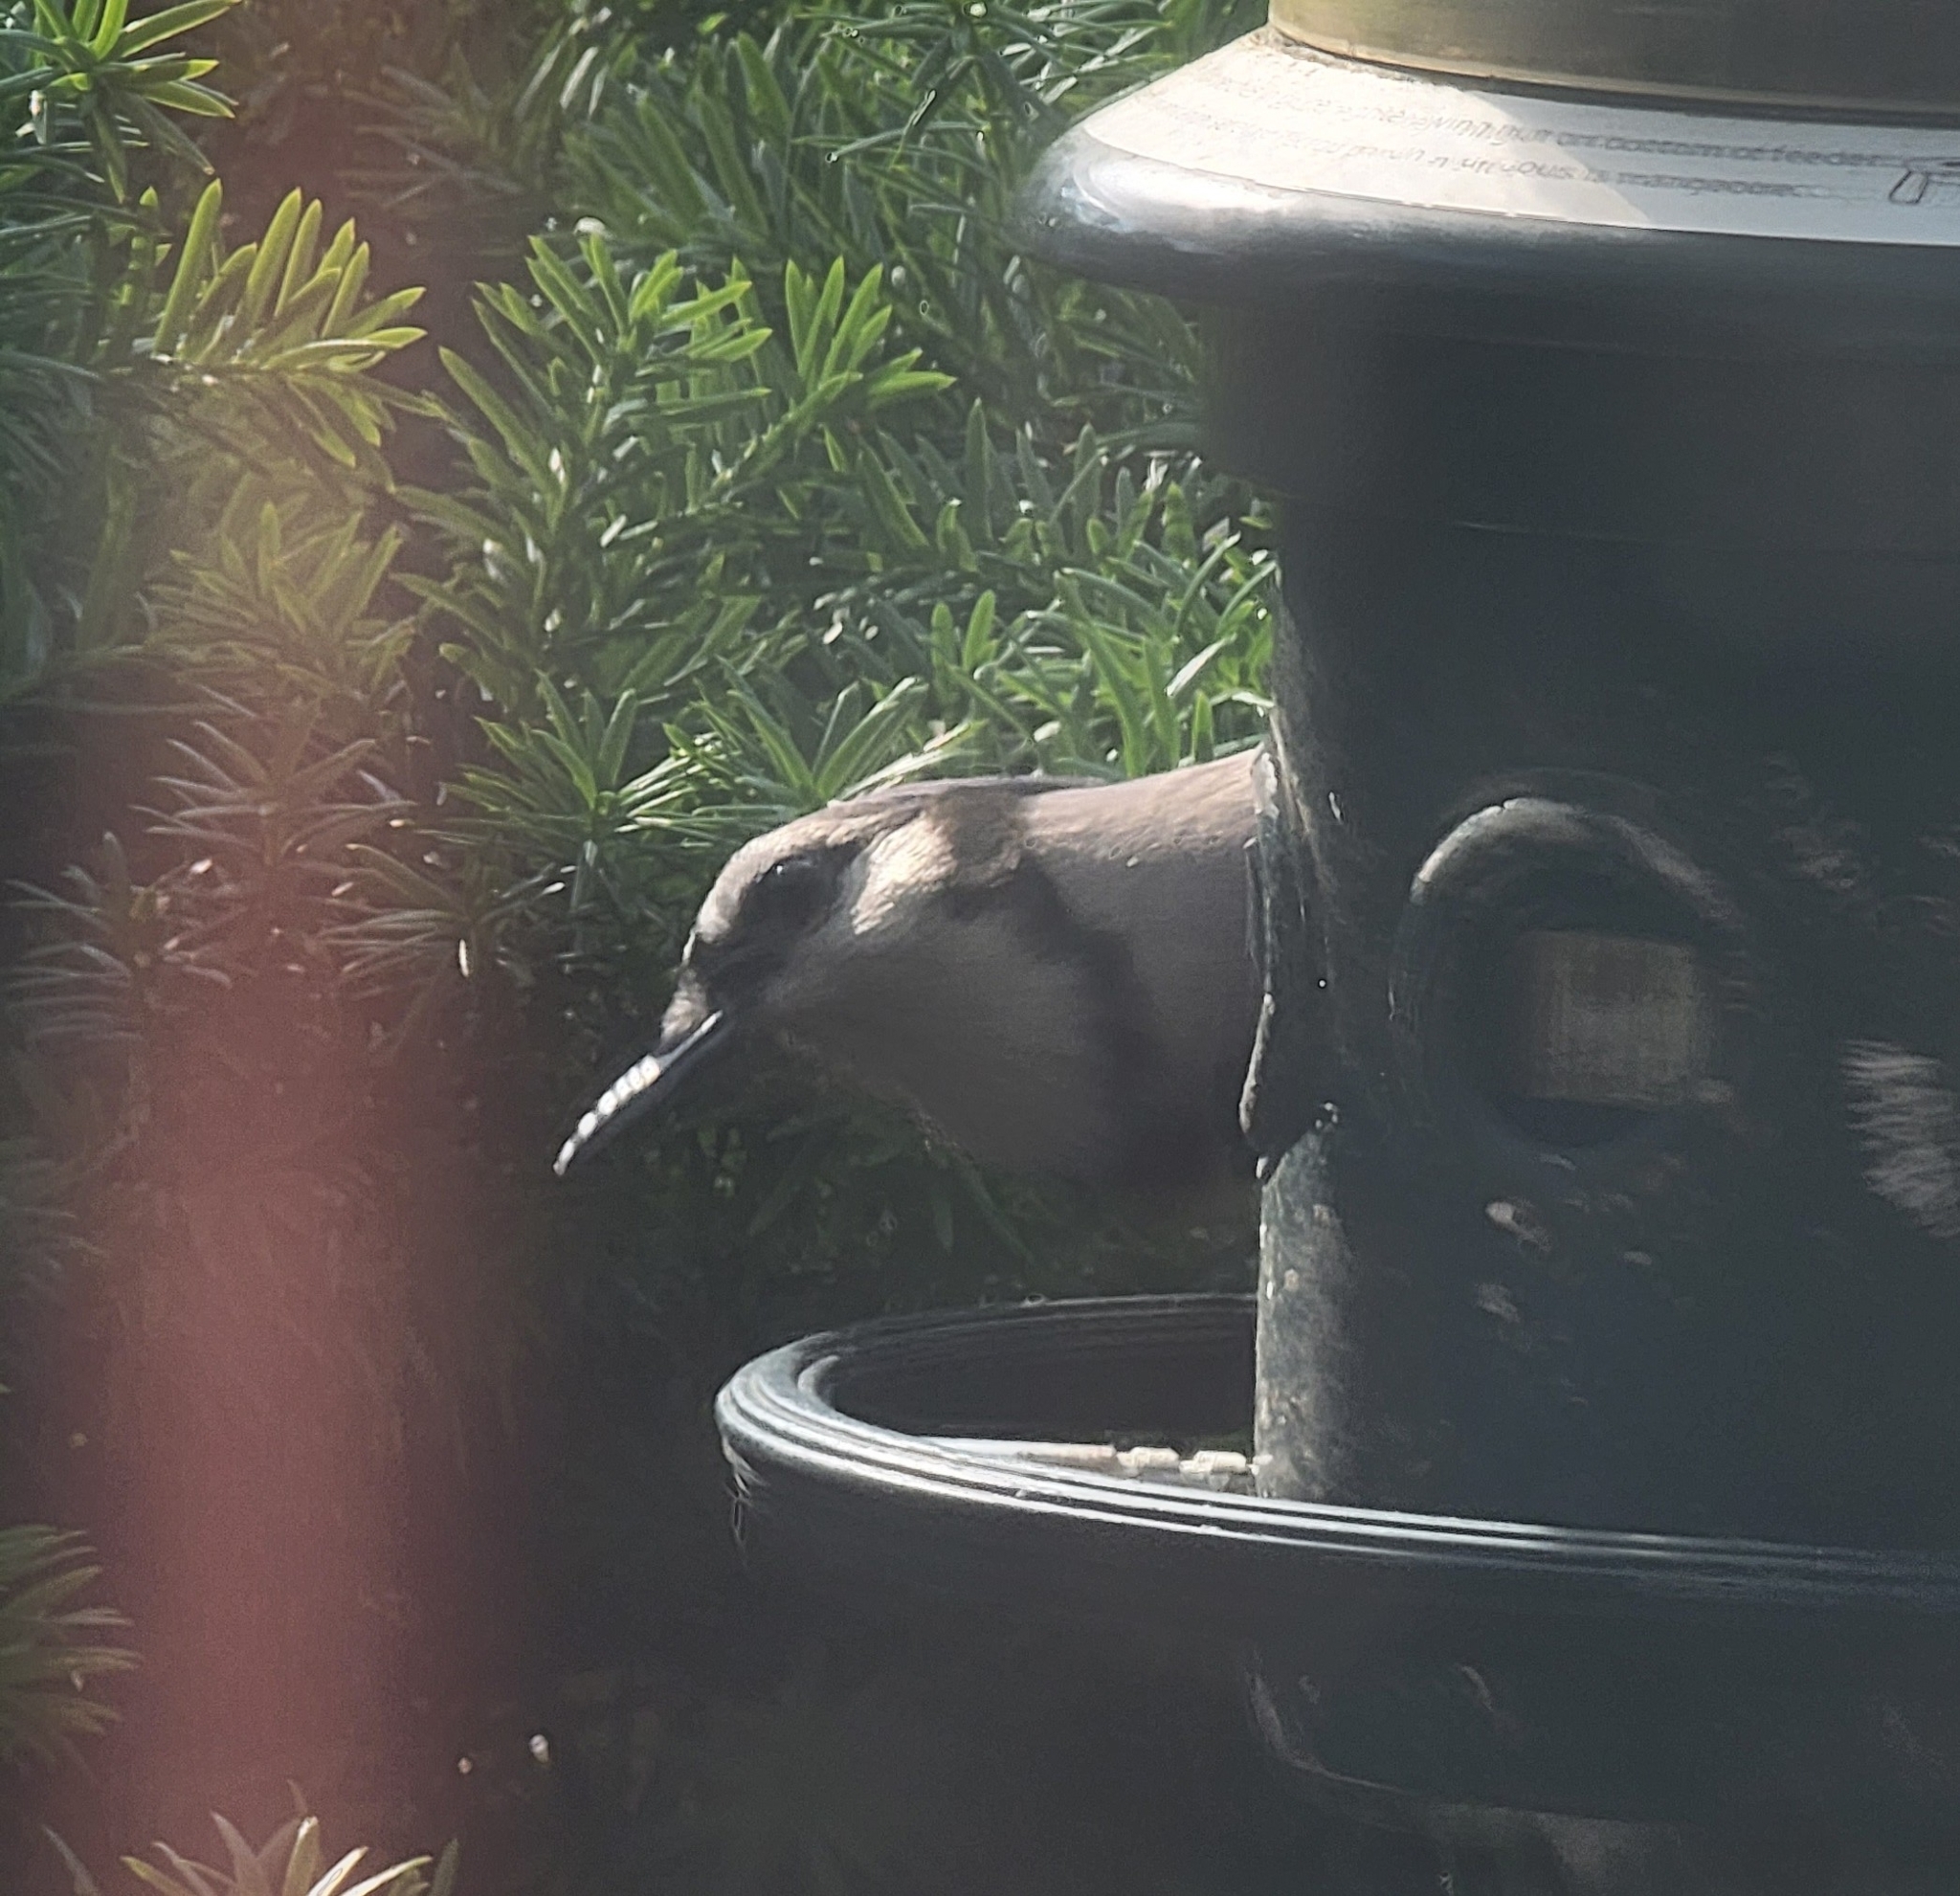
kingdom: Animalia
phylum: Chordata
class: Aves
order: Passeriformes
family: Corvidae
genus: Cyanocitta
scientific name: Cyanocitta cristata
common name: Blue jay
